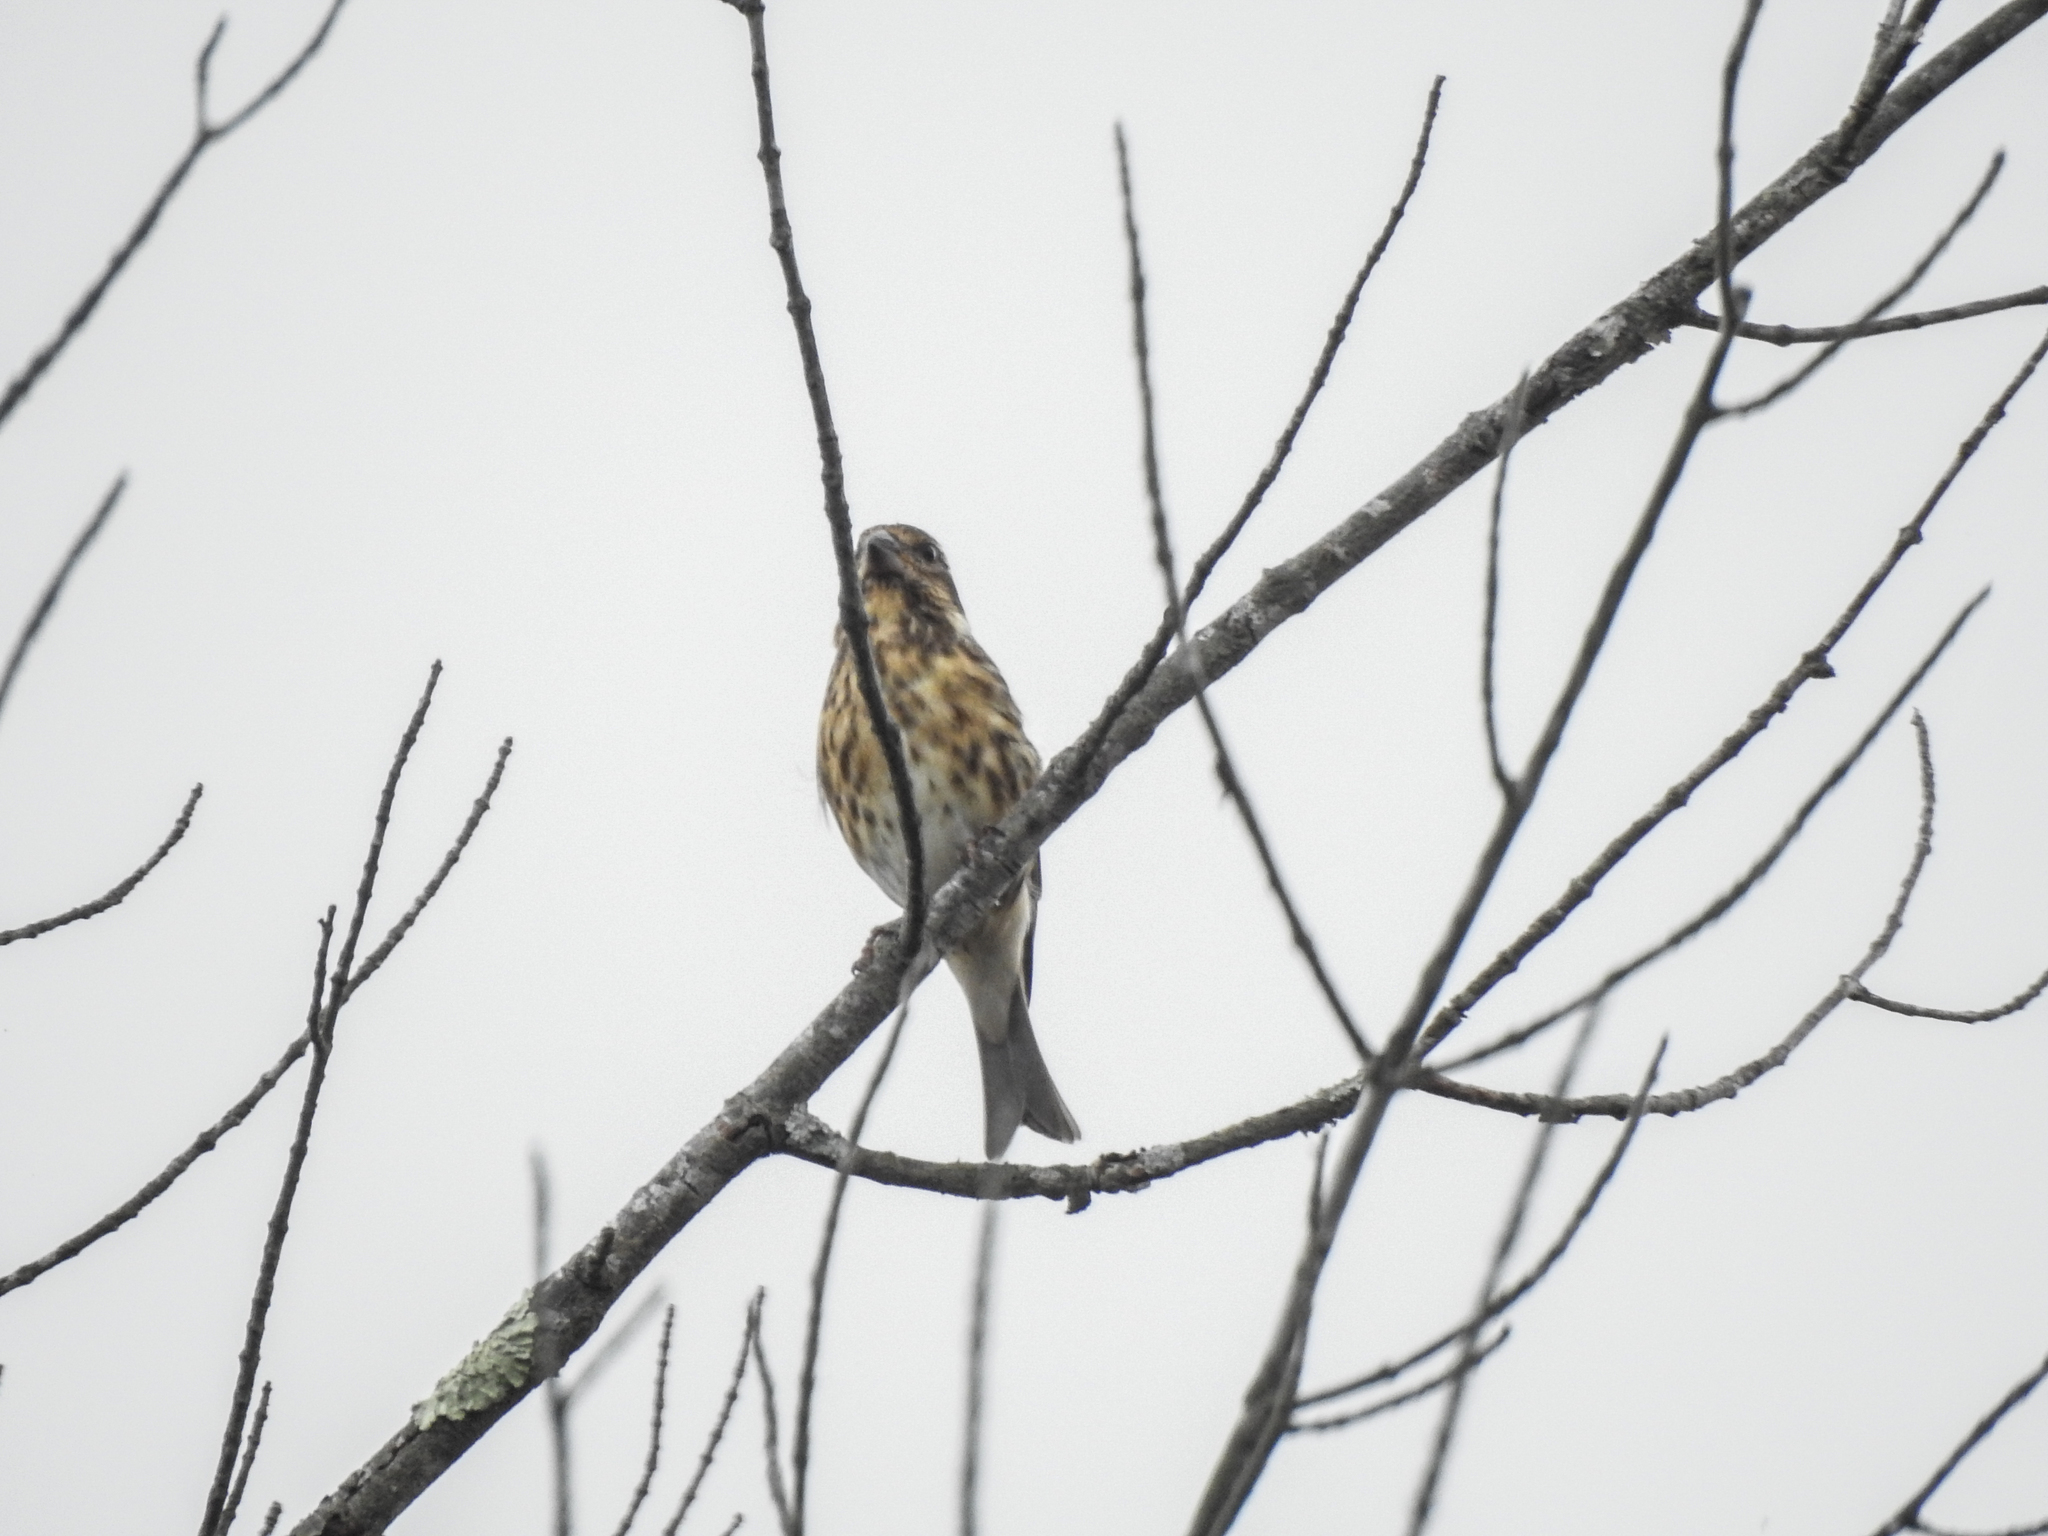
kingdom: Animalia
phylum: Chordata
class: Aves
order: Passeriformes
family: Fringillidae
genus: Haemorhous
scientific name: Haemorhous purpureus
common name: Purple finch
